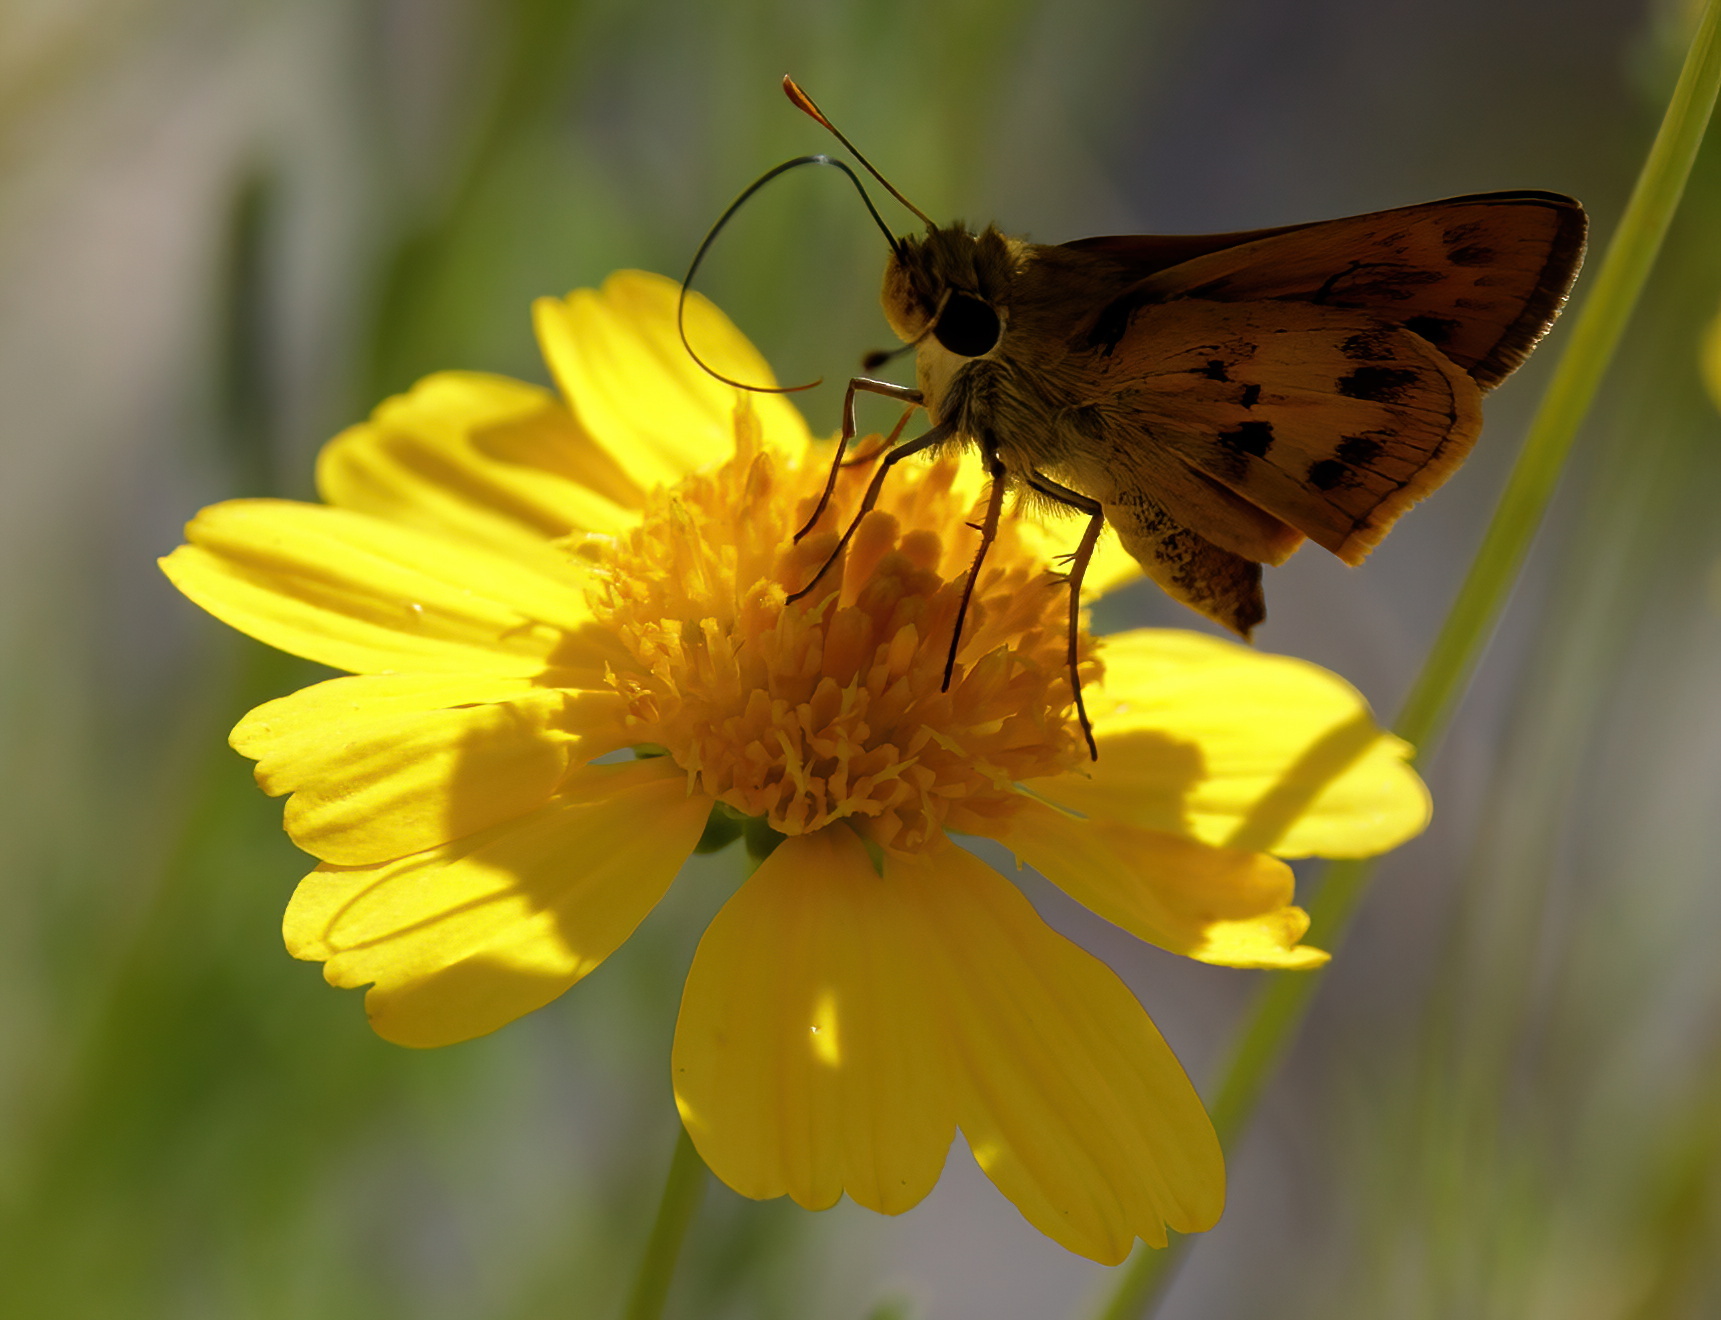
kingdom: Animalia
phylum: Arthropoda
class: Insecta
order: Lepidoptera
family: Hesperiidae
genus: Polites
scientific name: Polites vibex
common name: Whirlabout
